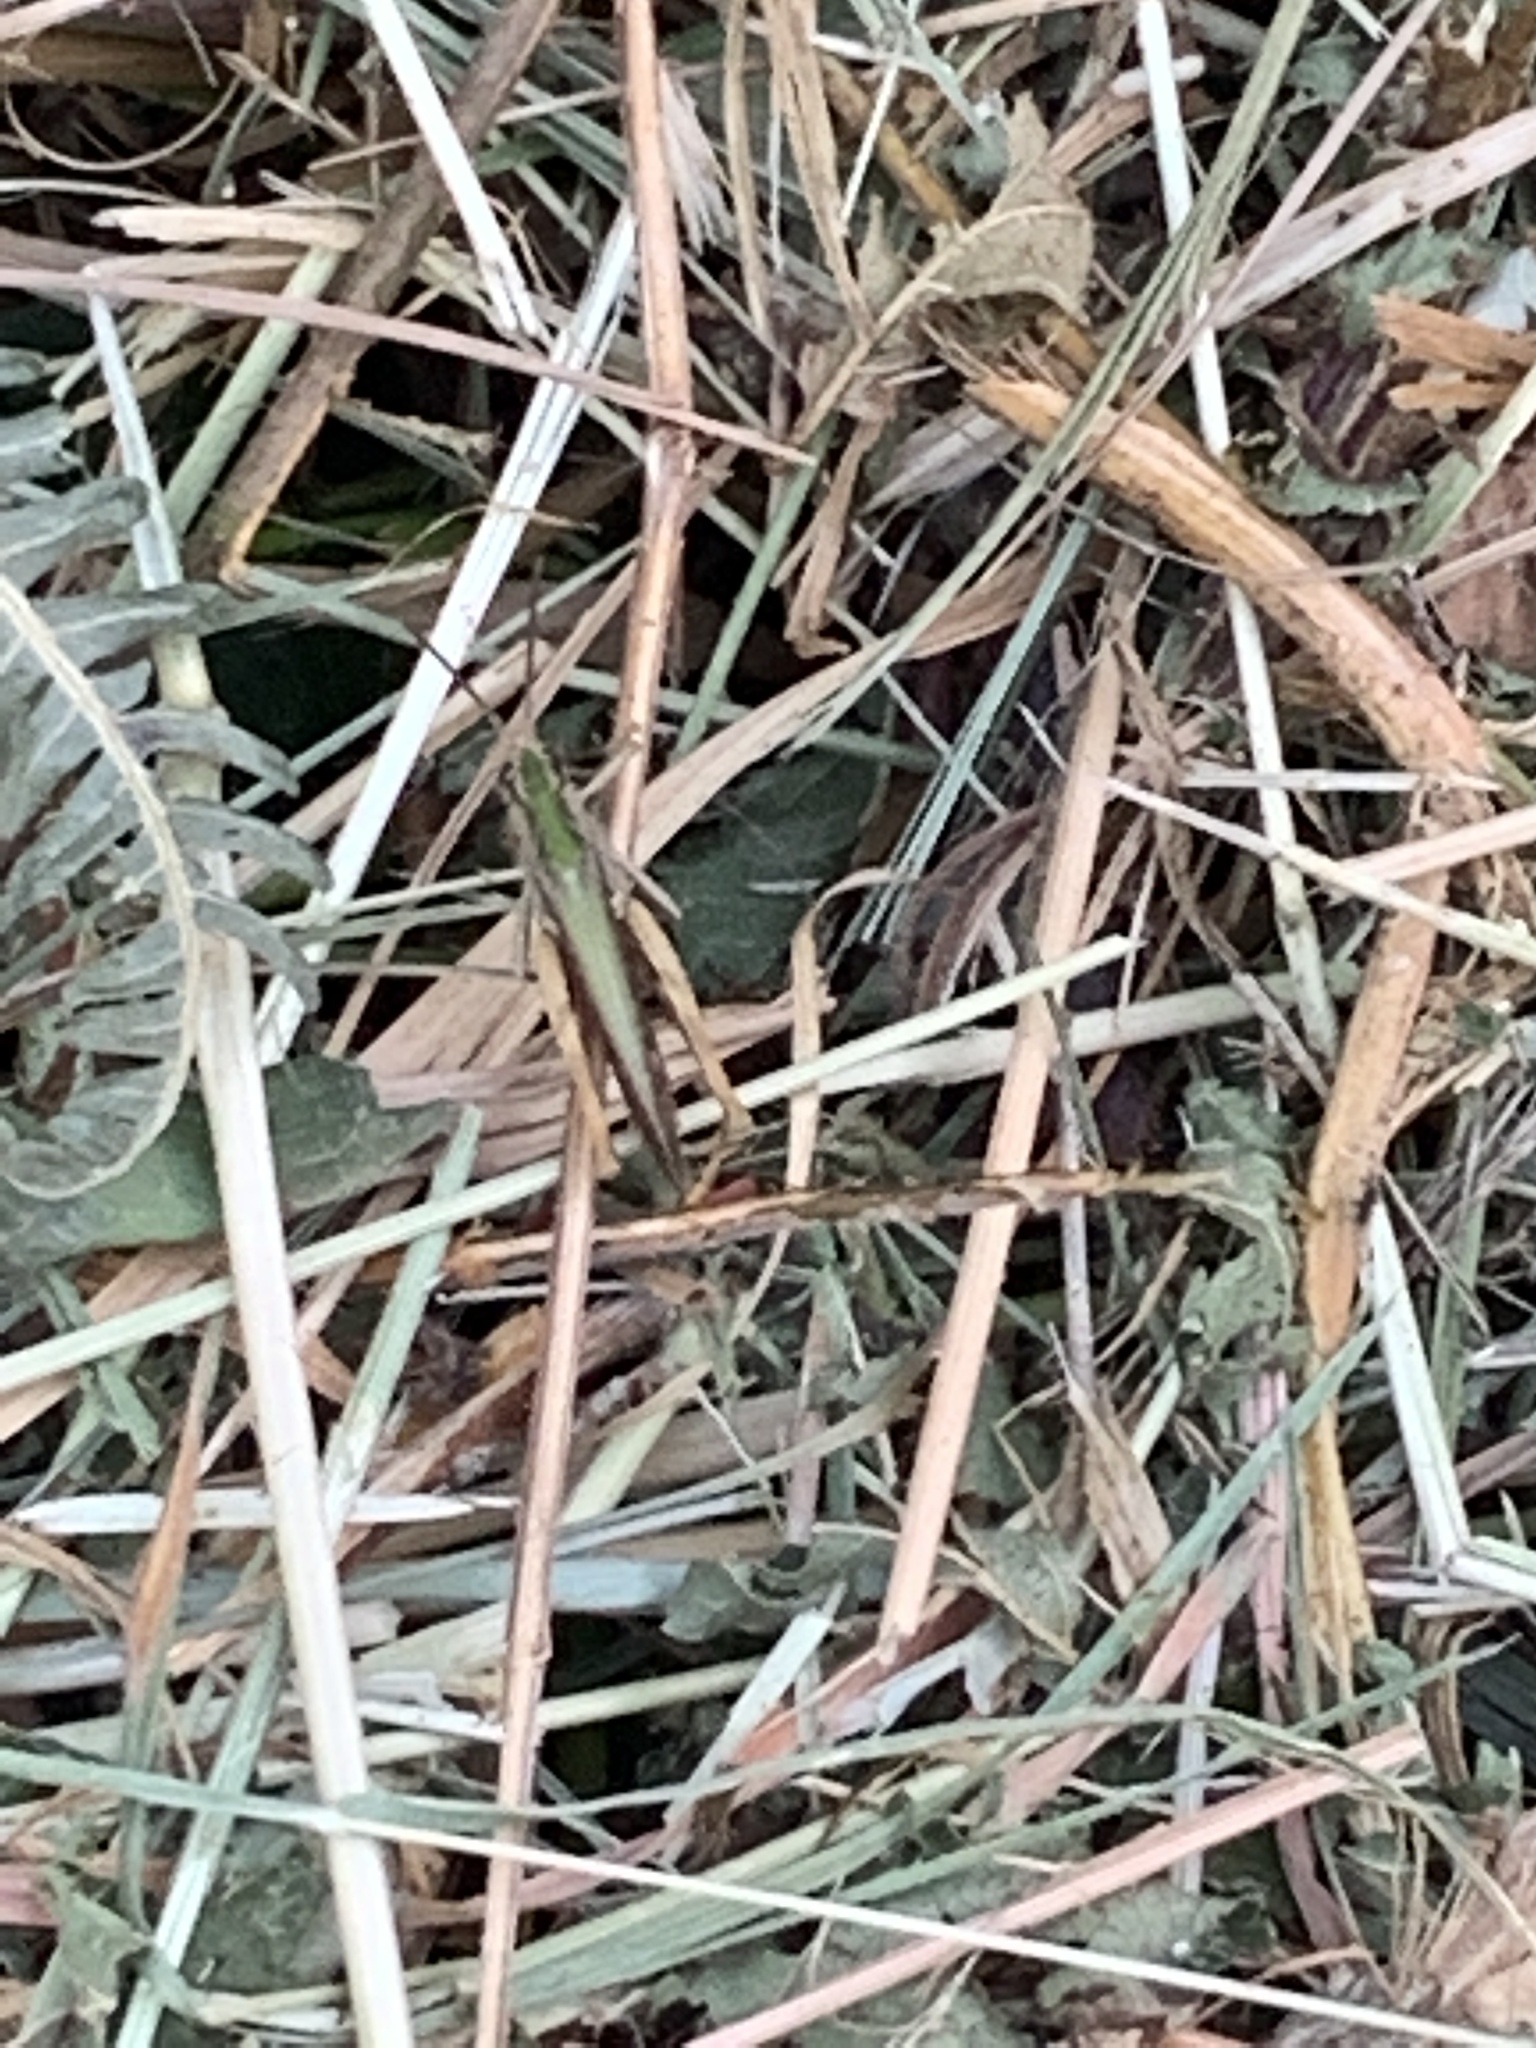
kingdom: Animalia
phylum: Arthropoda
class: Insecta
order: Orthoptera
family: Acrididae
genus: Chorthippus
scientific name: Chorthippus brunneus
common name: Field grasshopper
